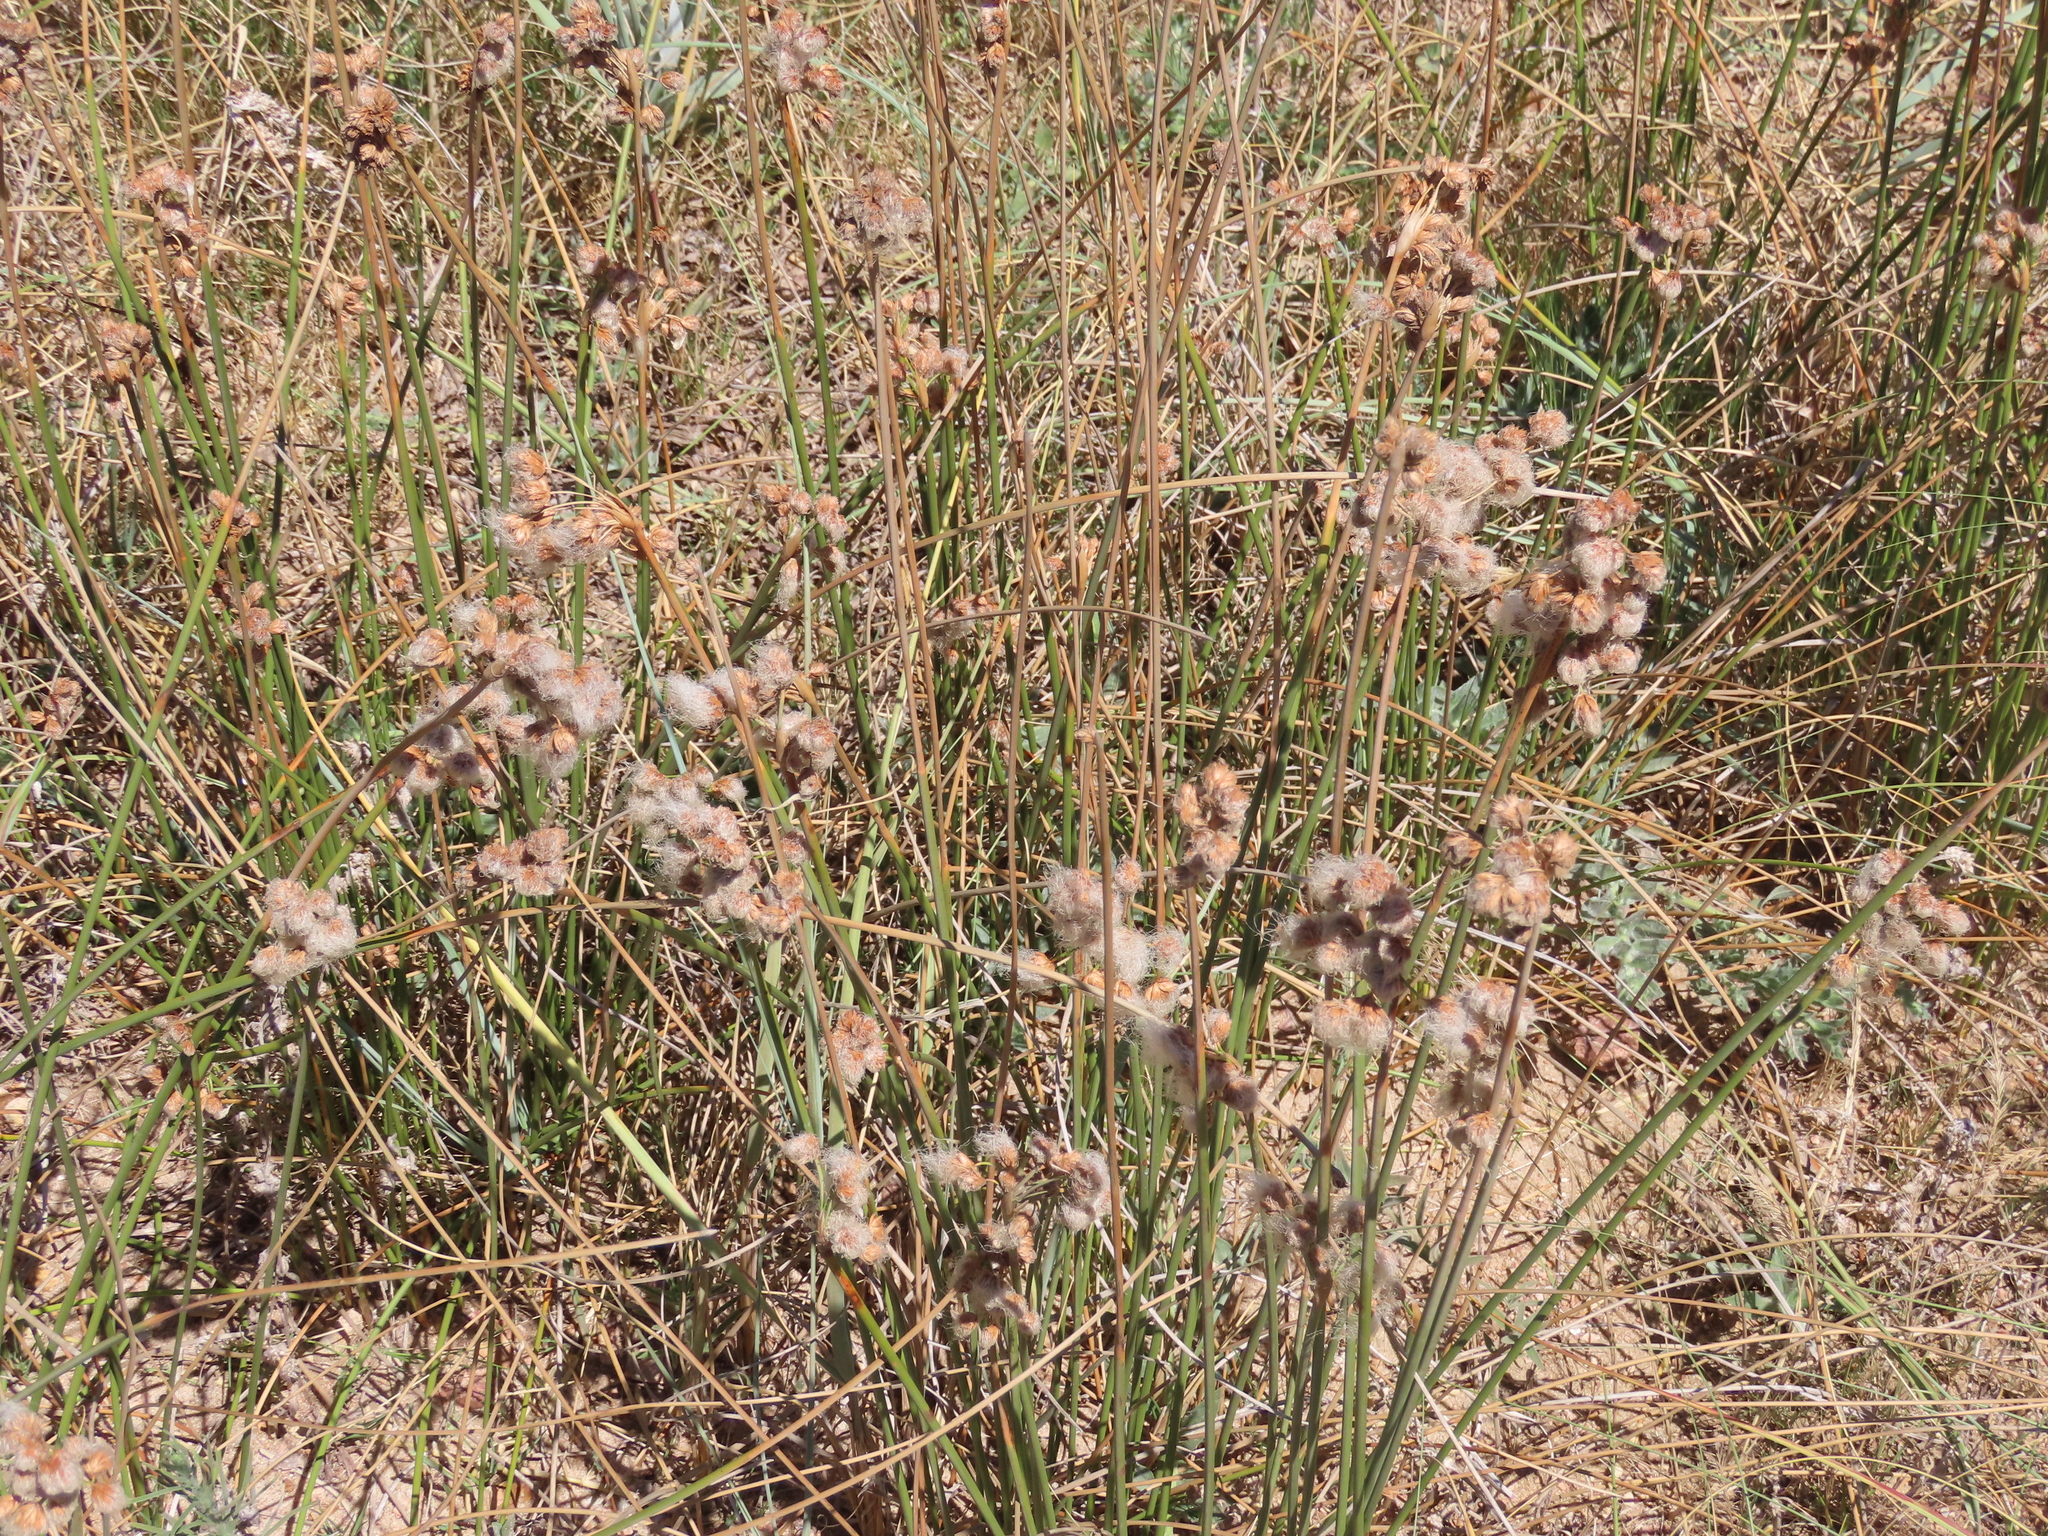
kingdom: Plantae
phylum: Tracheophyta
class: Liliopsida
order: Poales
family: Cyperaceae
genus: Cyperus
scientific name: Cyperus trigynus
